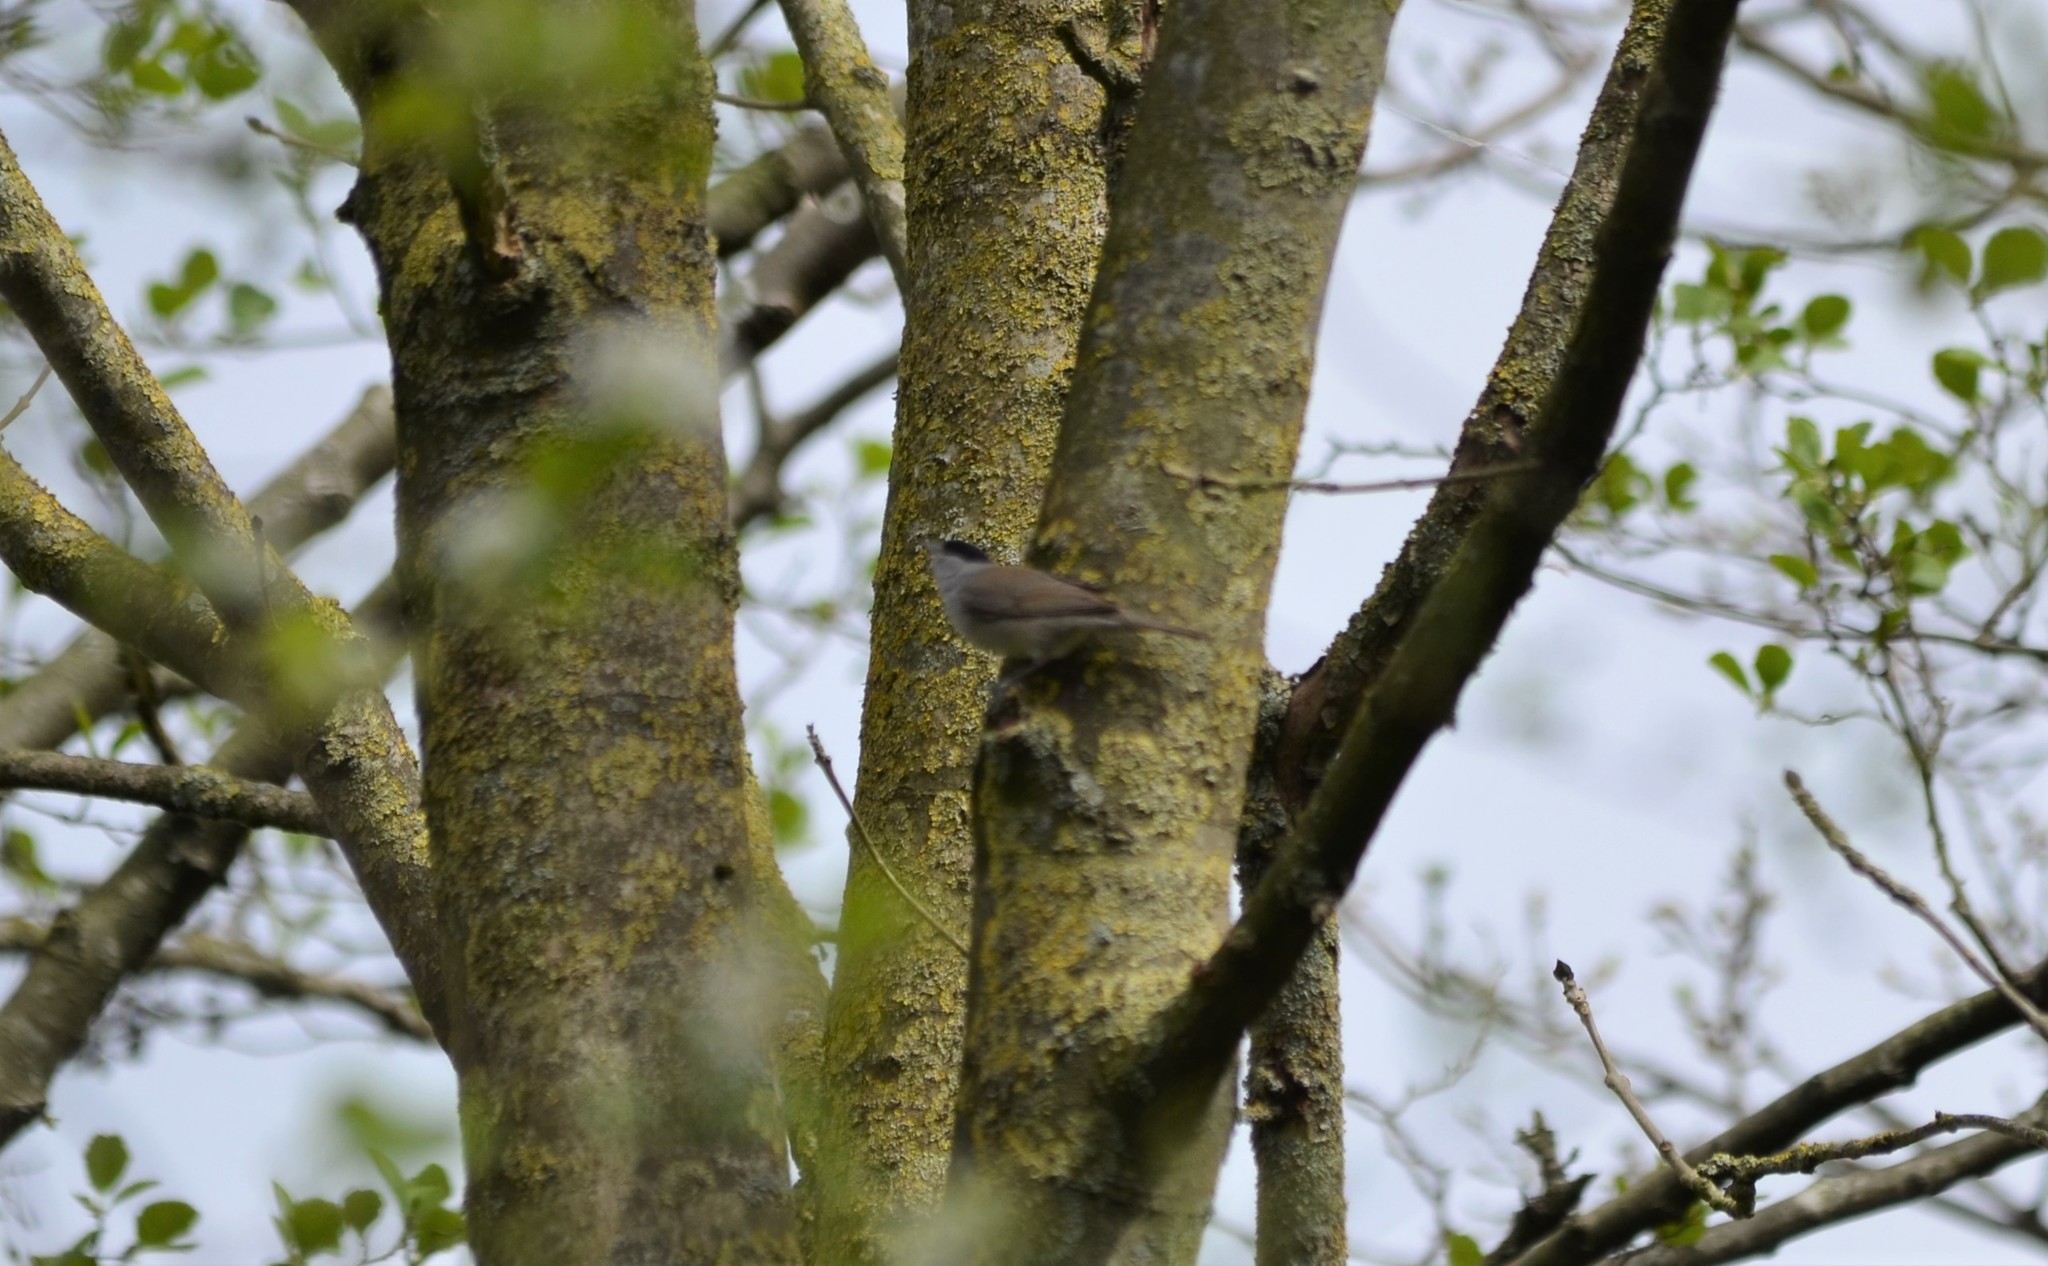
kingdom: Animalia
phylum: Chordata
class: Aves
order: Passeriformes
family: Sylviidae
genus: Sylvia
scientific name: Sylvia atricapilla
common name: Eurasian blackcap
